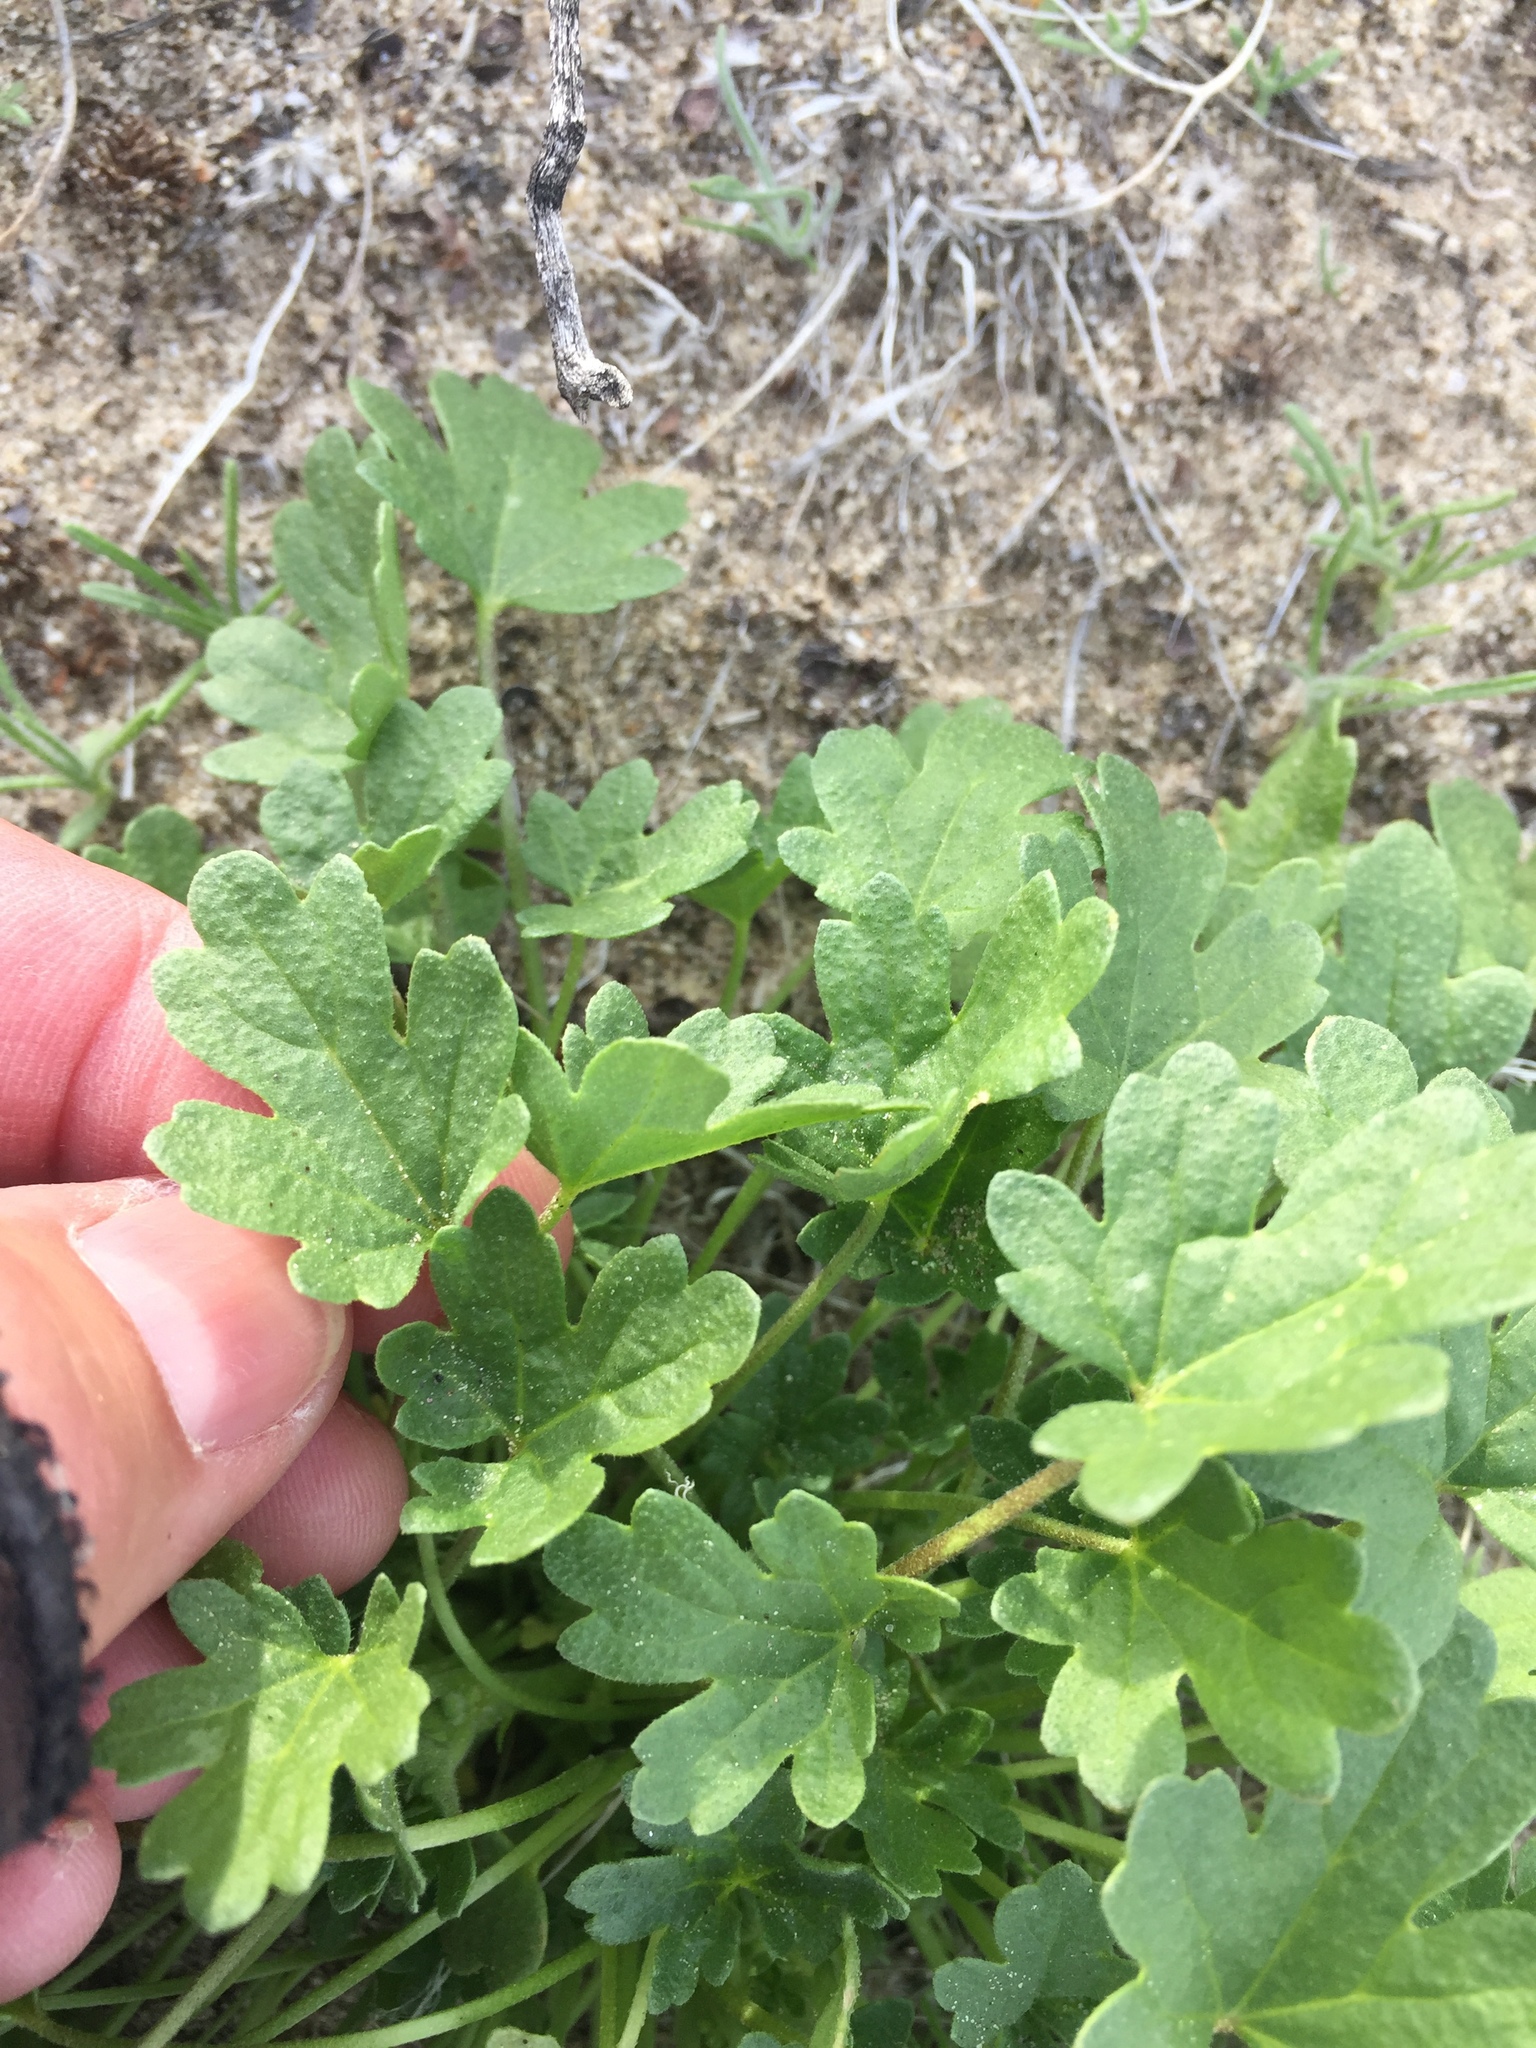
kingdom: Plantae
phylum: Tracheophyta
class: Magnoliopsida
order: Malvales
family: Malvaceae
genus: Eremalche
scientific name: Eremalche exilis
